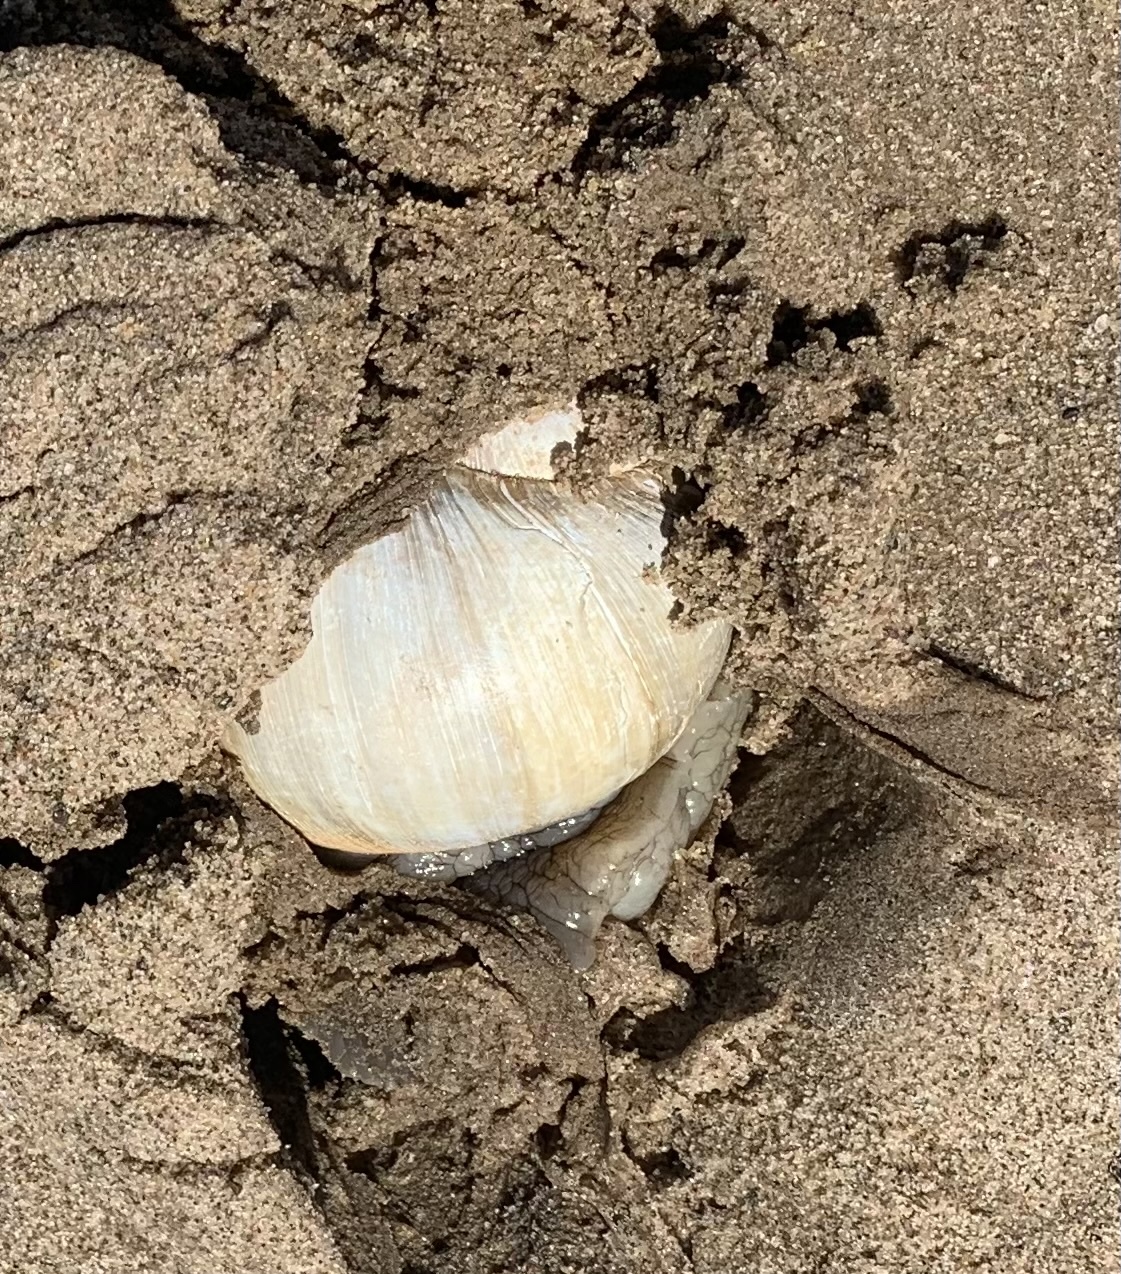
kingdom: Animalia
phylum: Mollusca
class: Gastropoda
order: Littorinimorpha
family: Naticidae
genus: Euspira
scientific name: Euspira heros
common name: Common northern moonsnail
